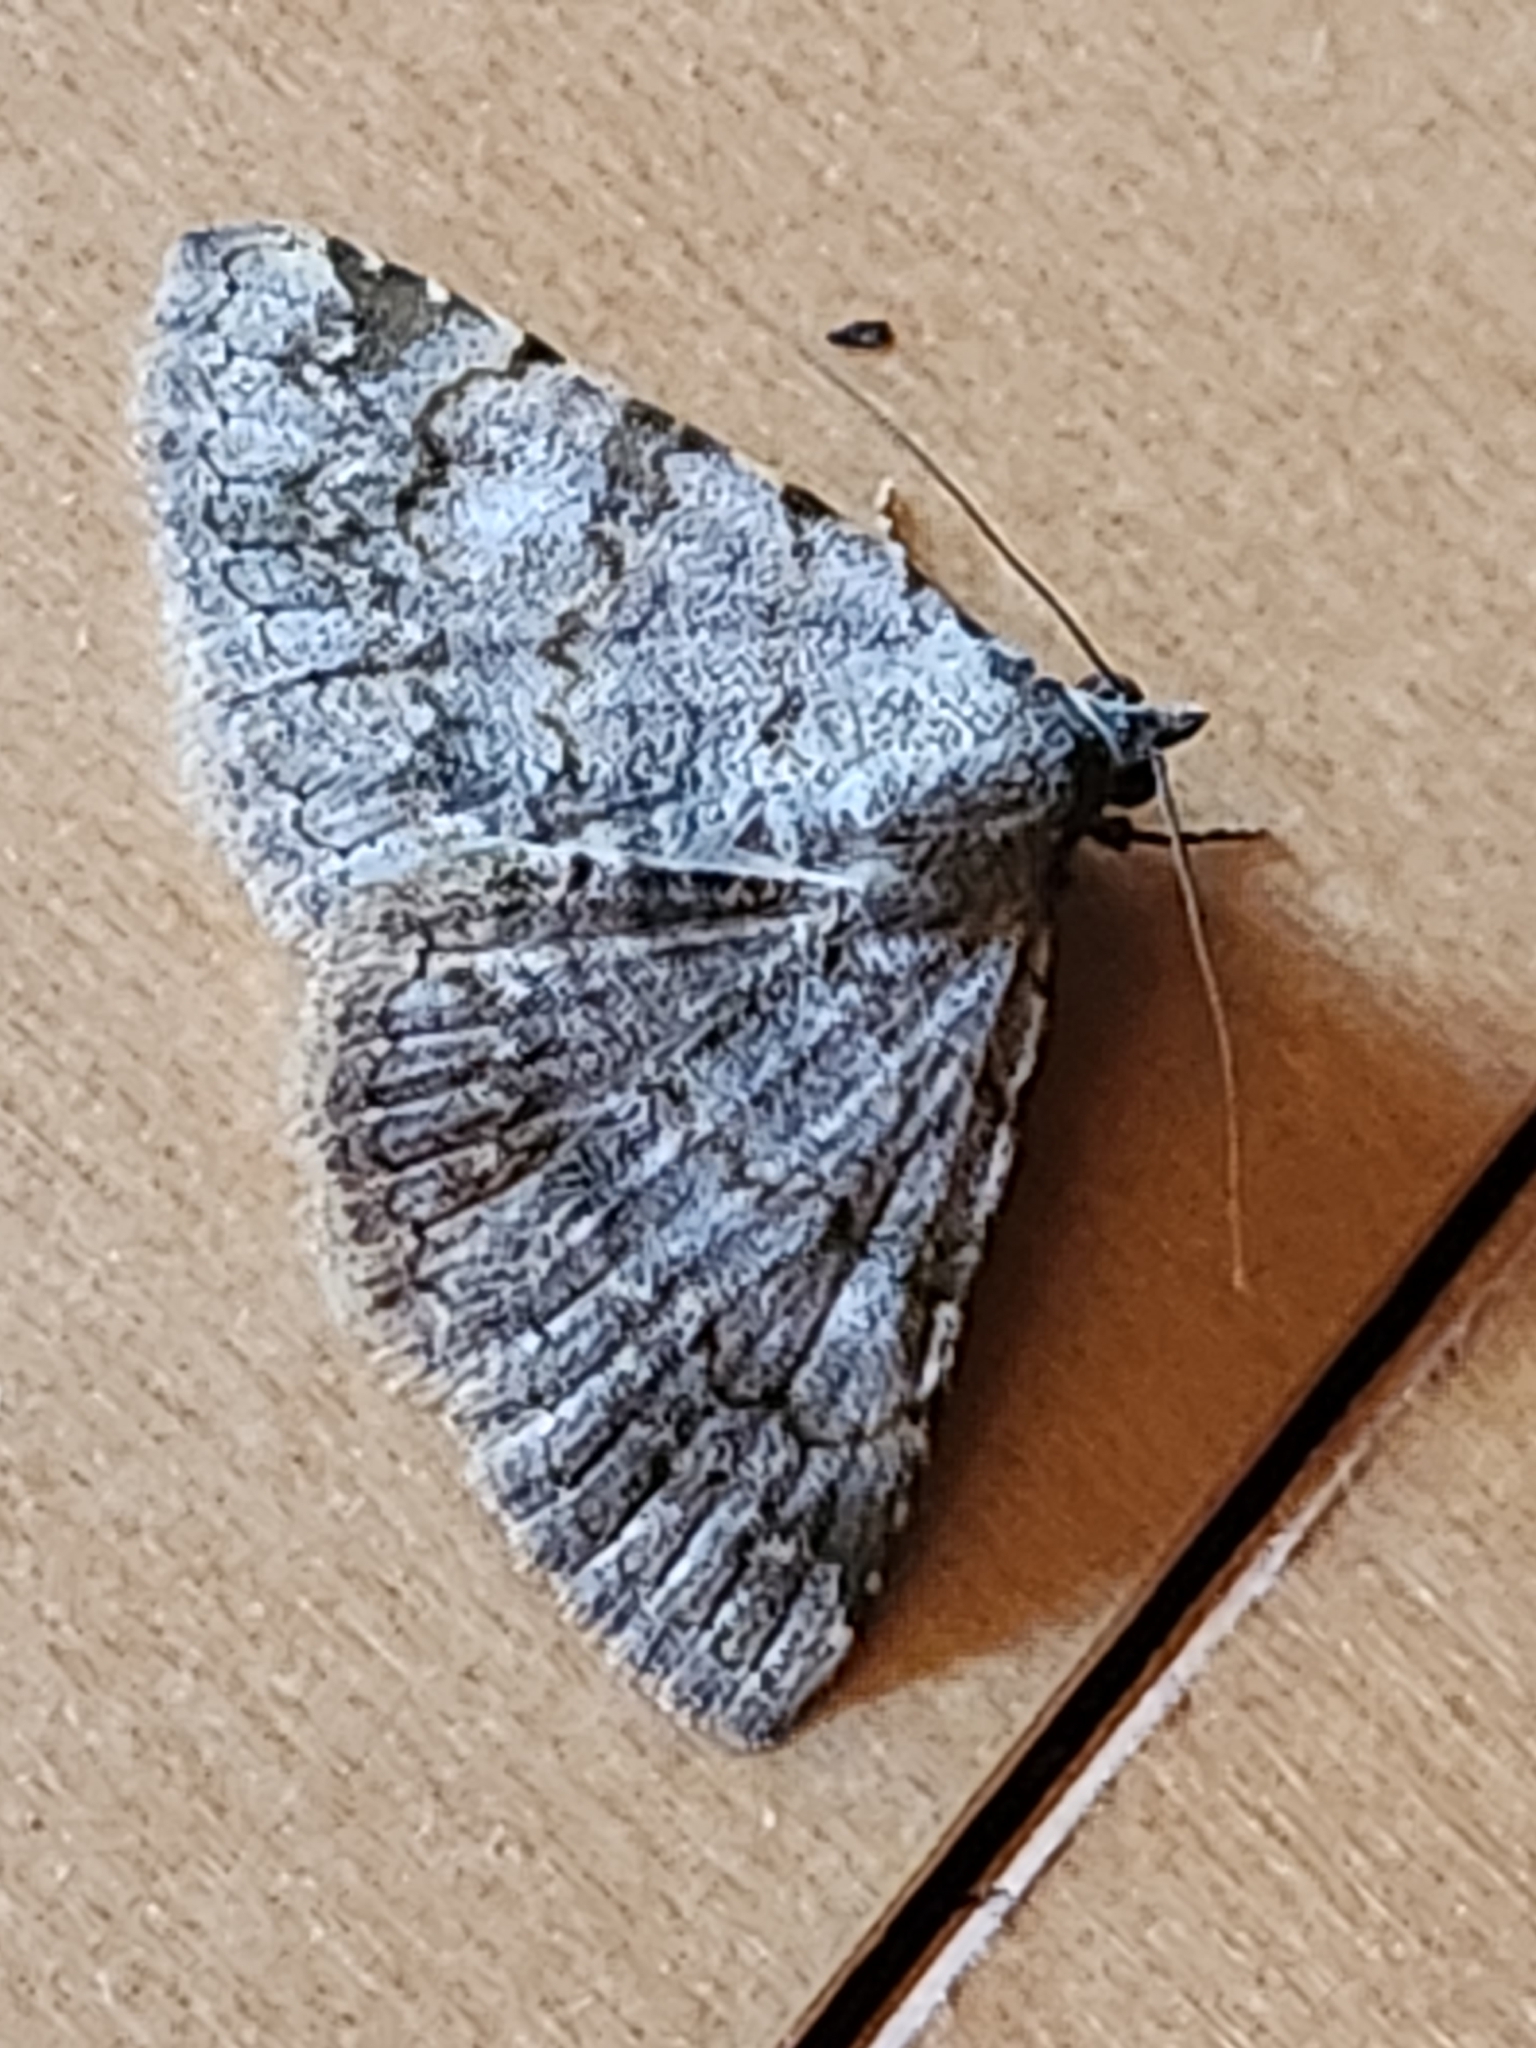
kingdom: Animalia
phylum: Arthropoda
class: Insecta
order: Lepidoptera
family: Erebidae
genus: Toxonprucha
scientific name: Toxonprucha crudelis
